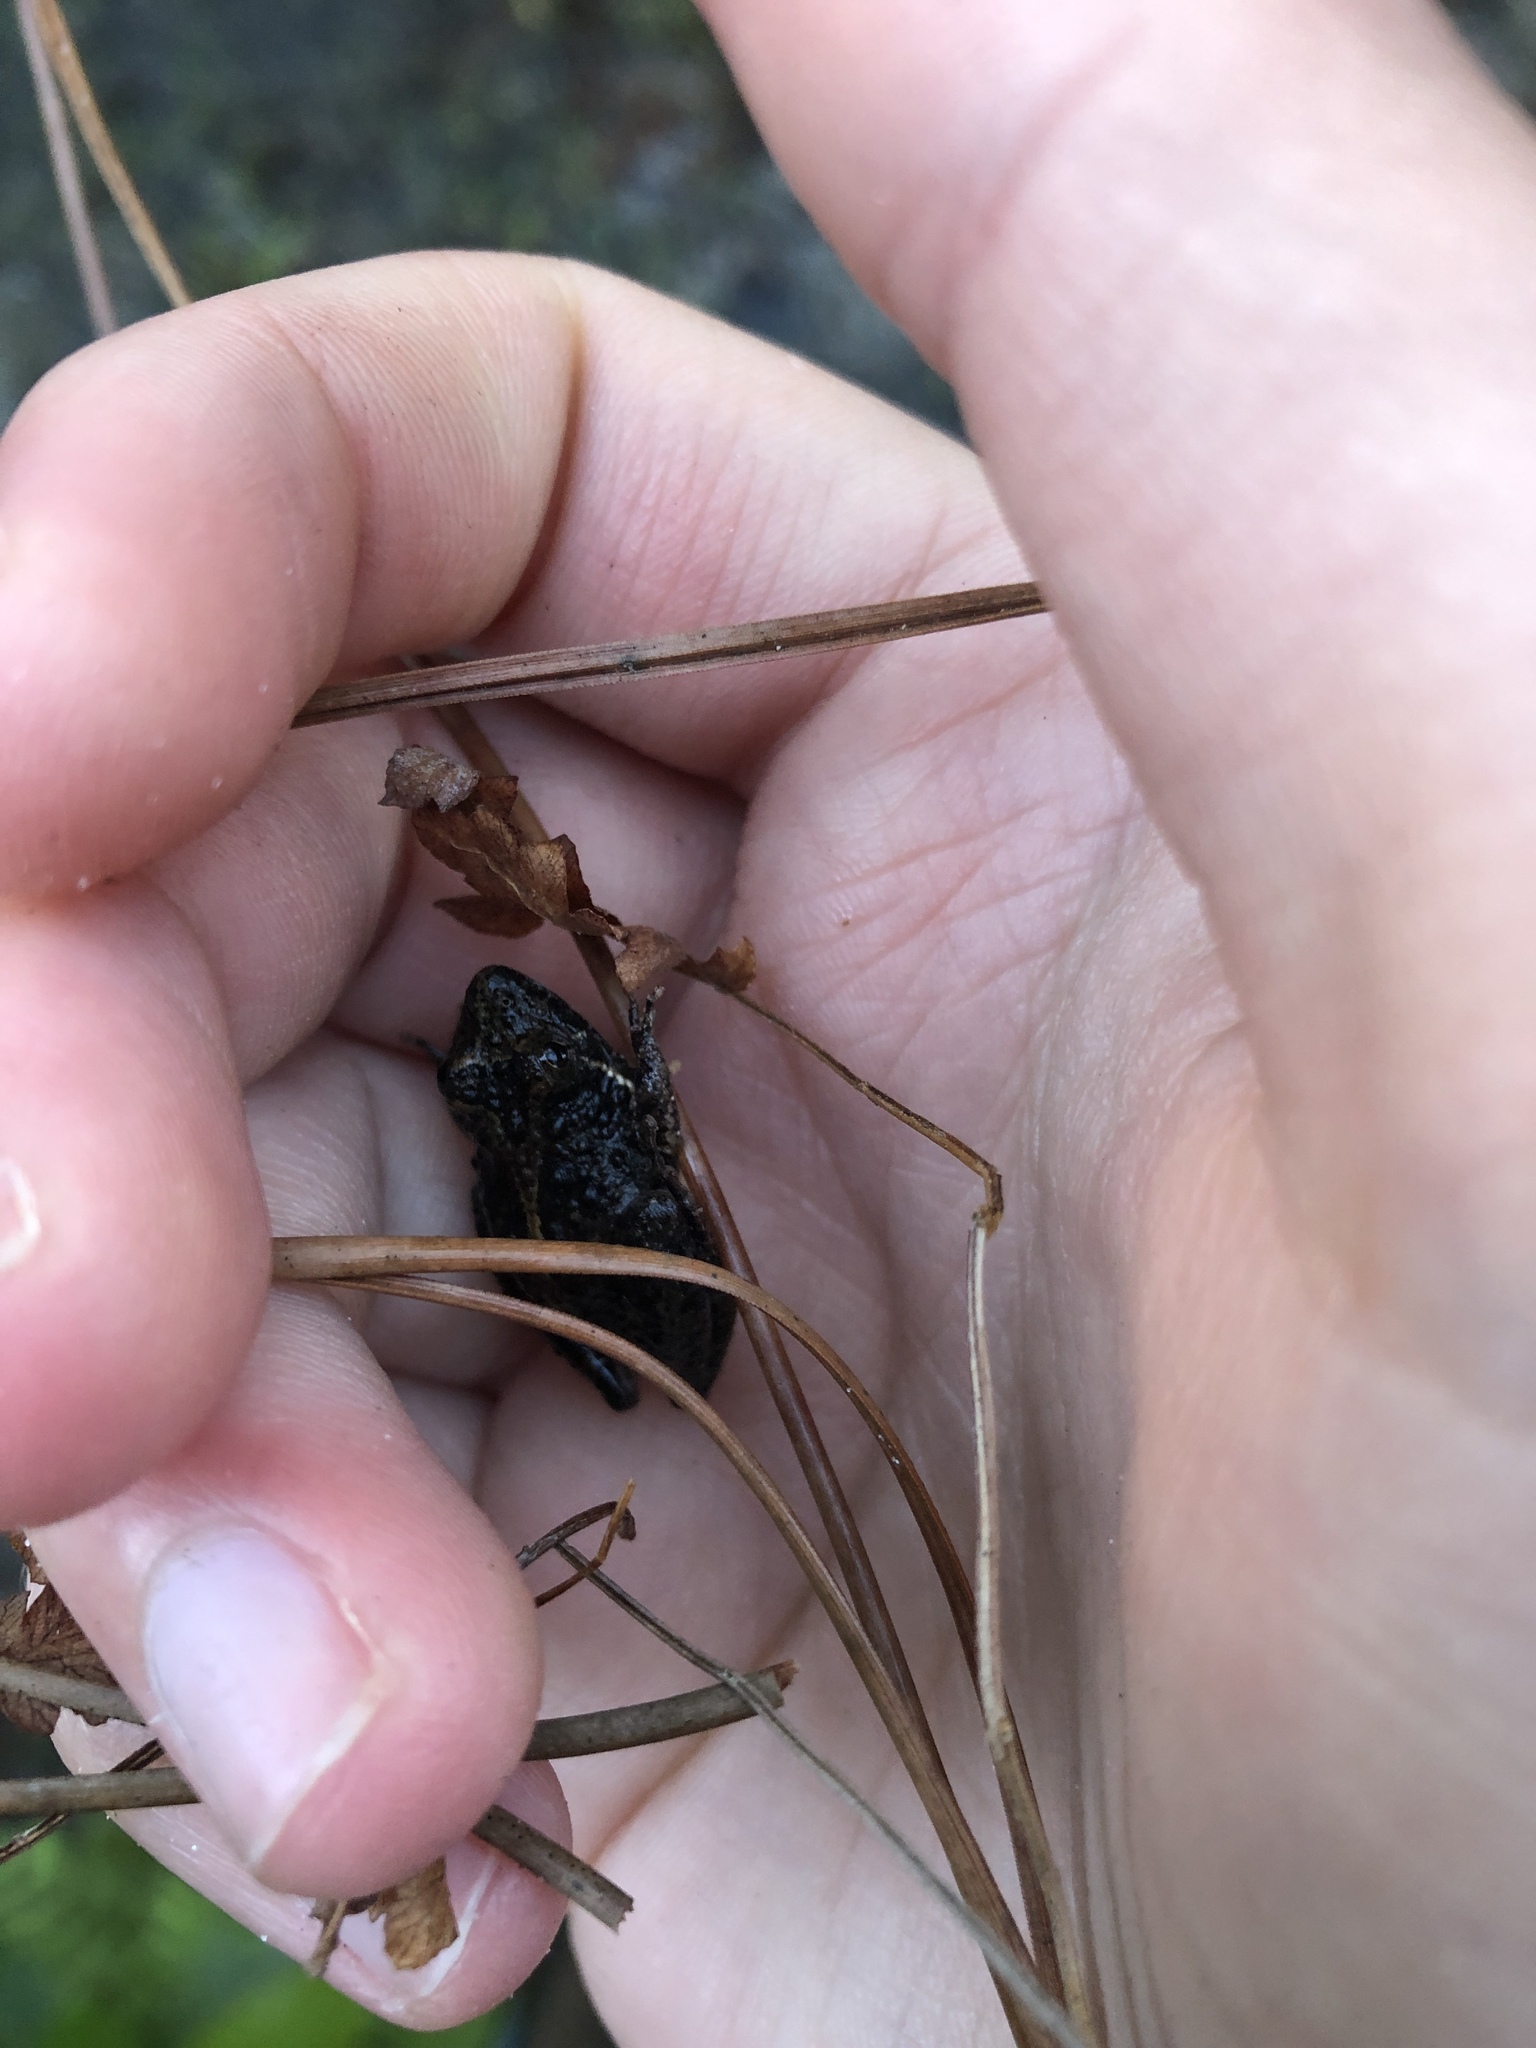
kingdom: Animalia
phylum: Chordata
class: Amphibia
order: Anura
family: Hylidae
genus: Acris
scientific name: Acris gryllus
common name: Southern cricket frog
